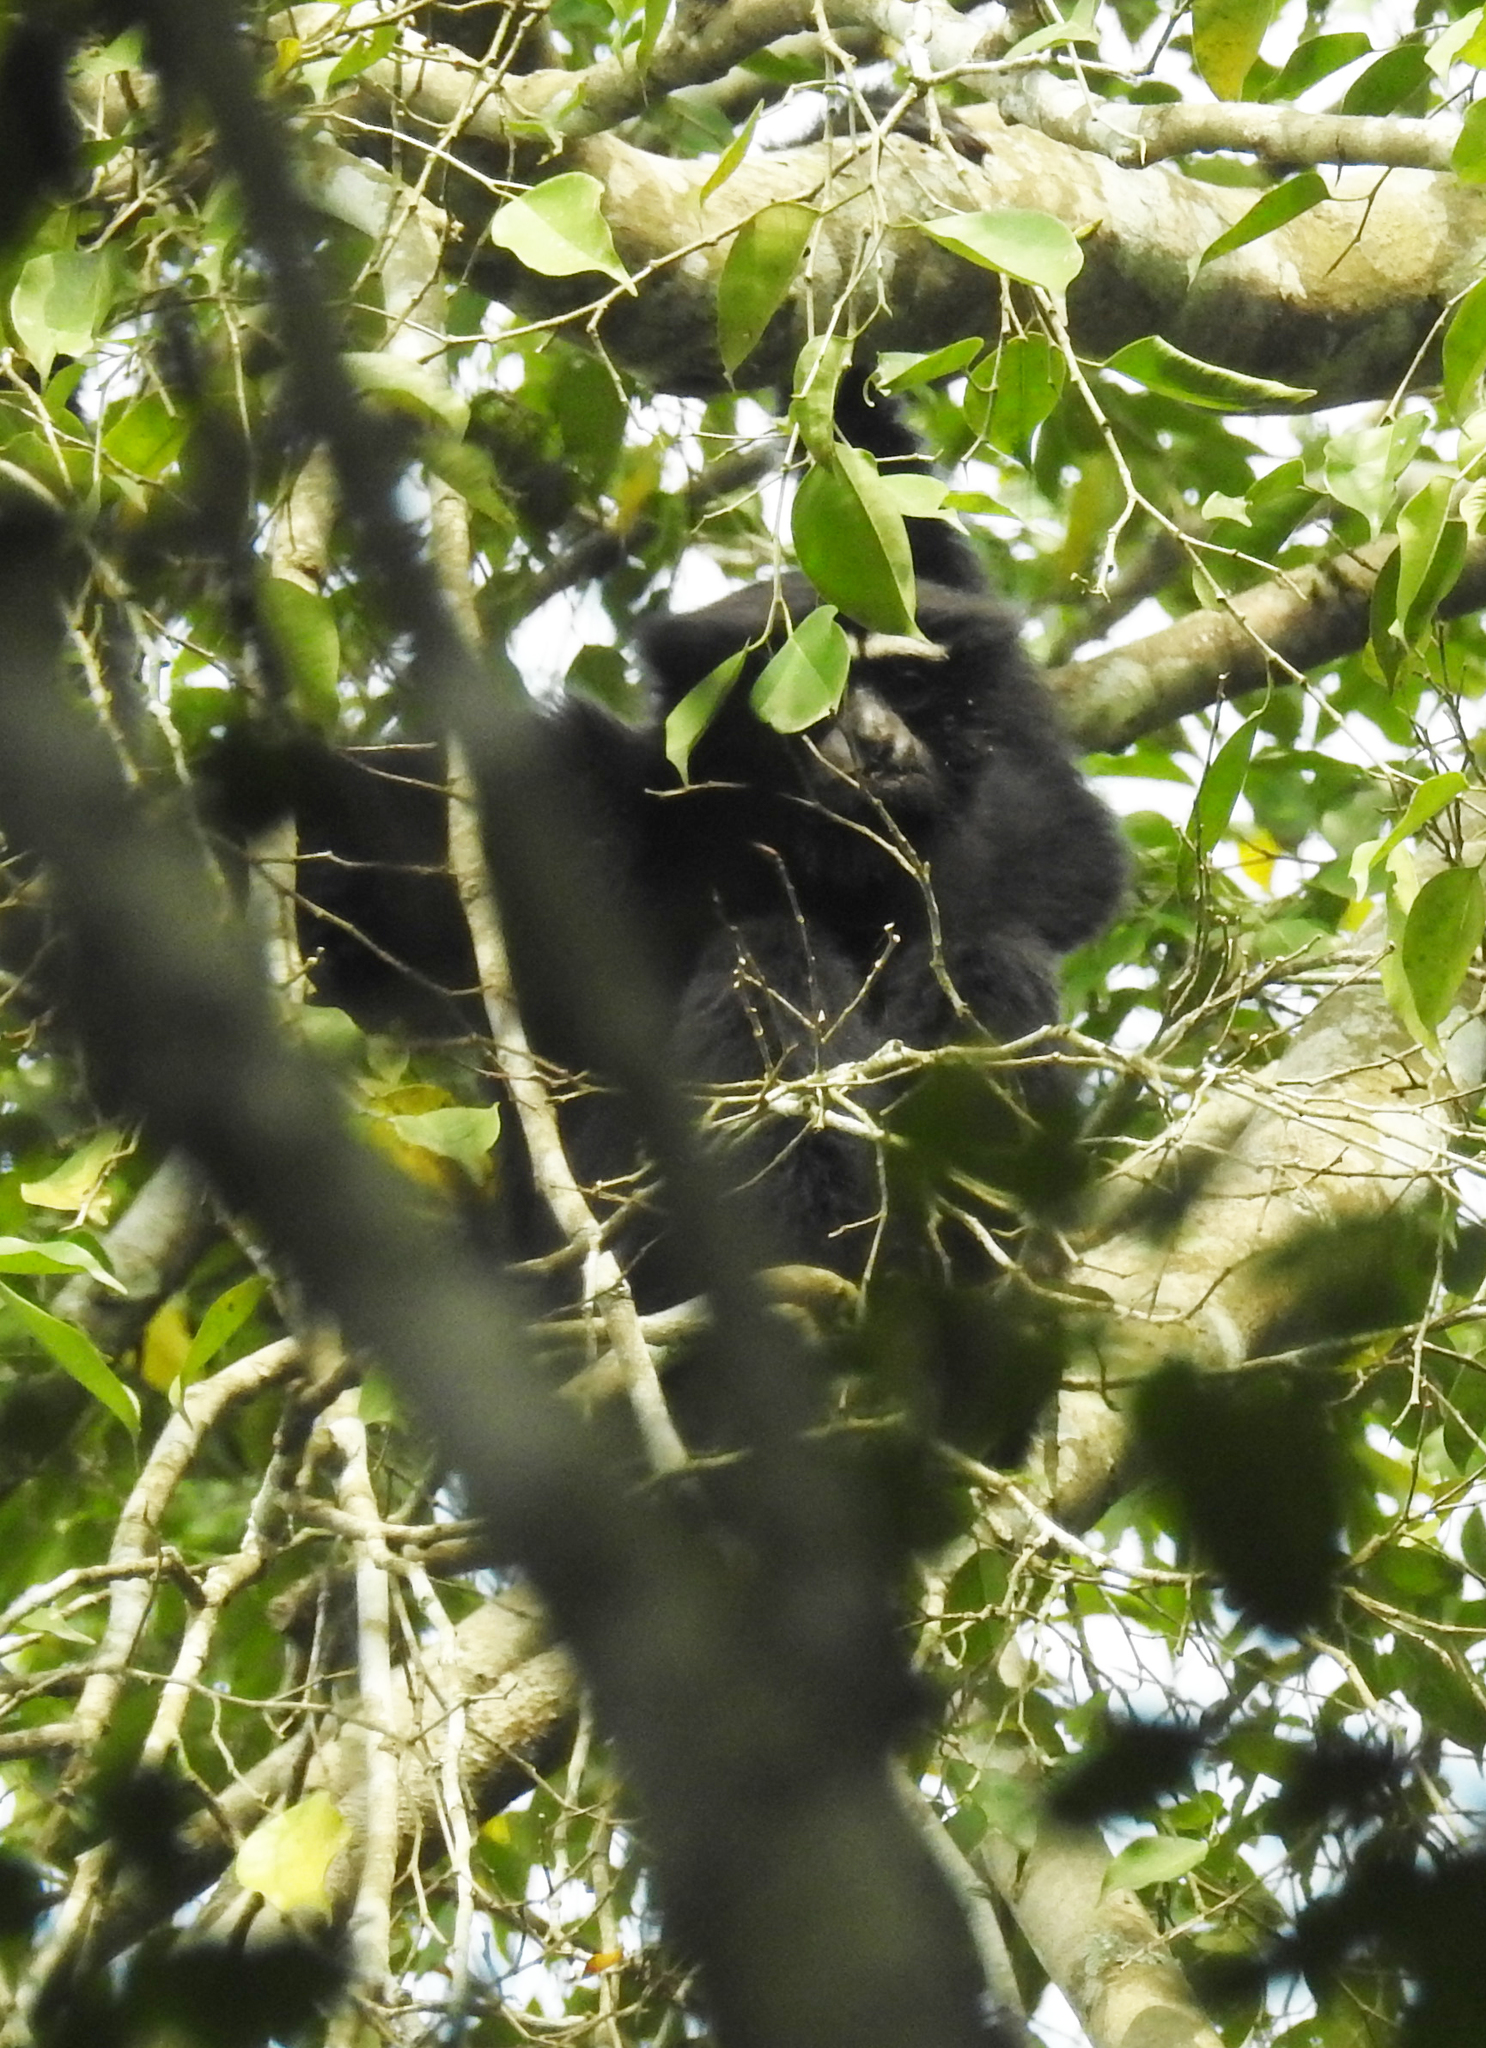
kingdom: Animalia
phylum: Chordata
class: Mammalia
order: Primates
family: Hylobatidae
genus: Hoolock
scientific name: Hoolock hoolock
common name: Western hoolock gibbon
